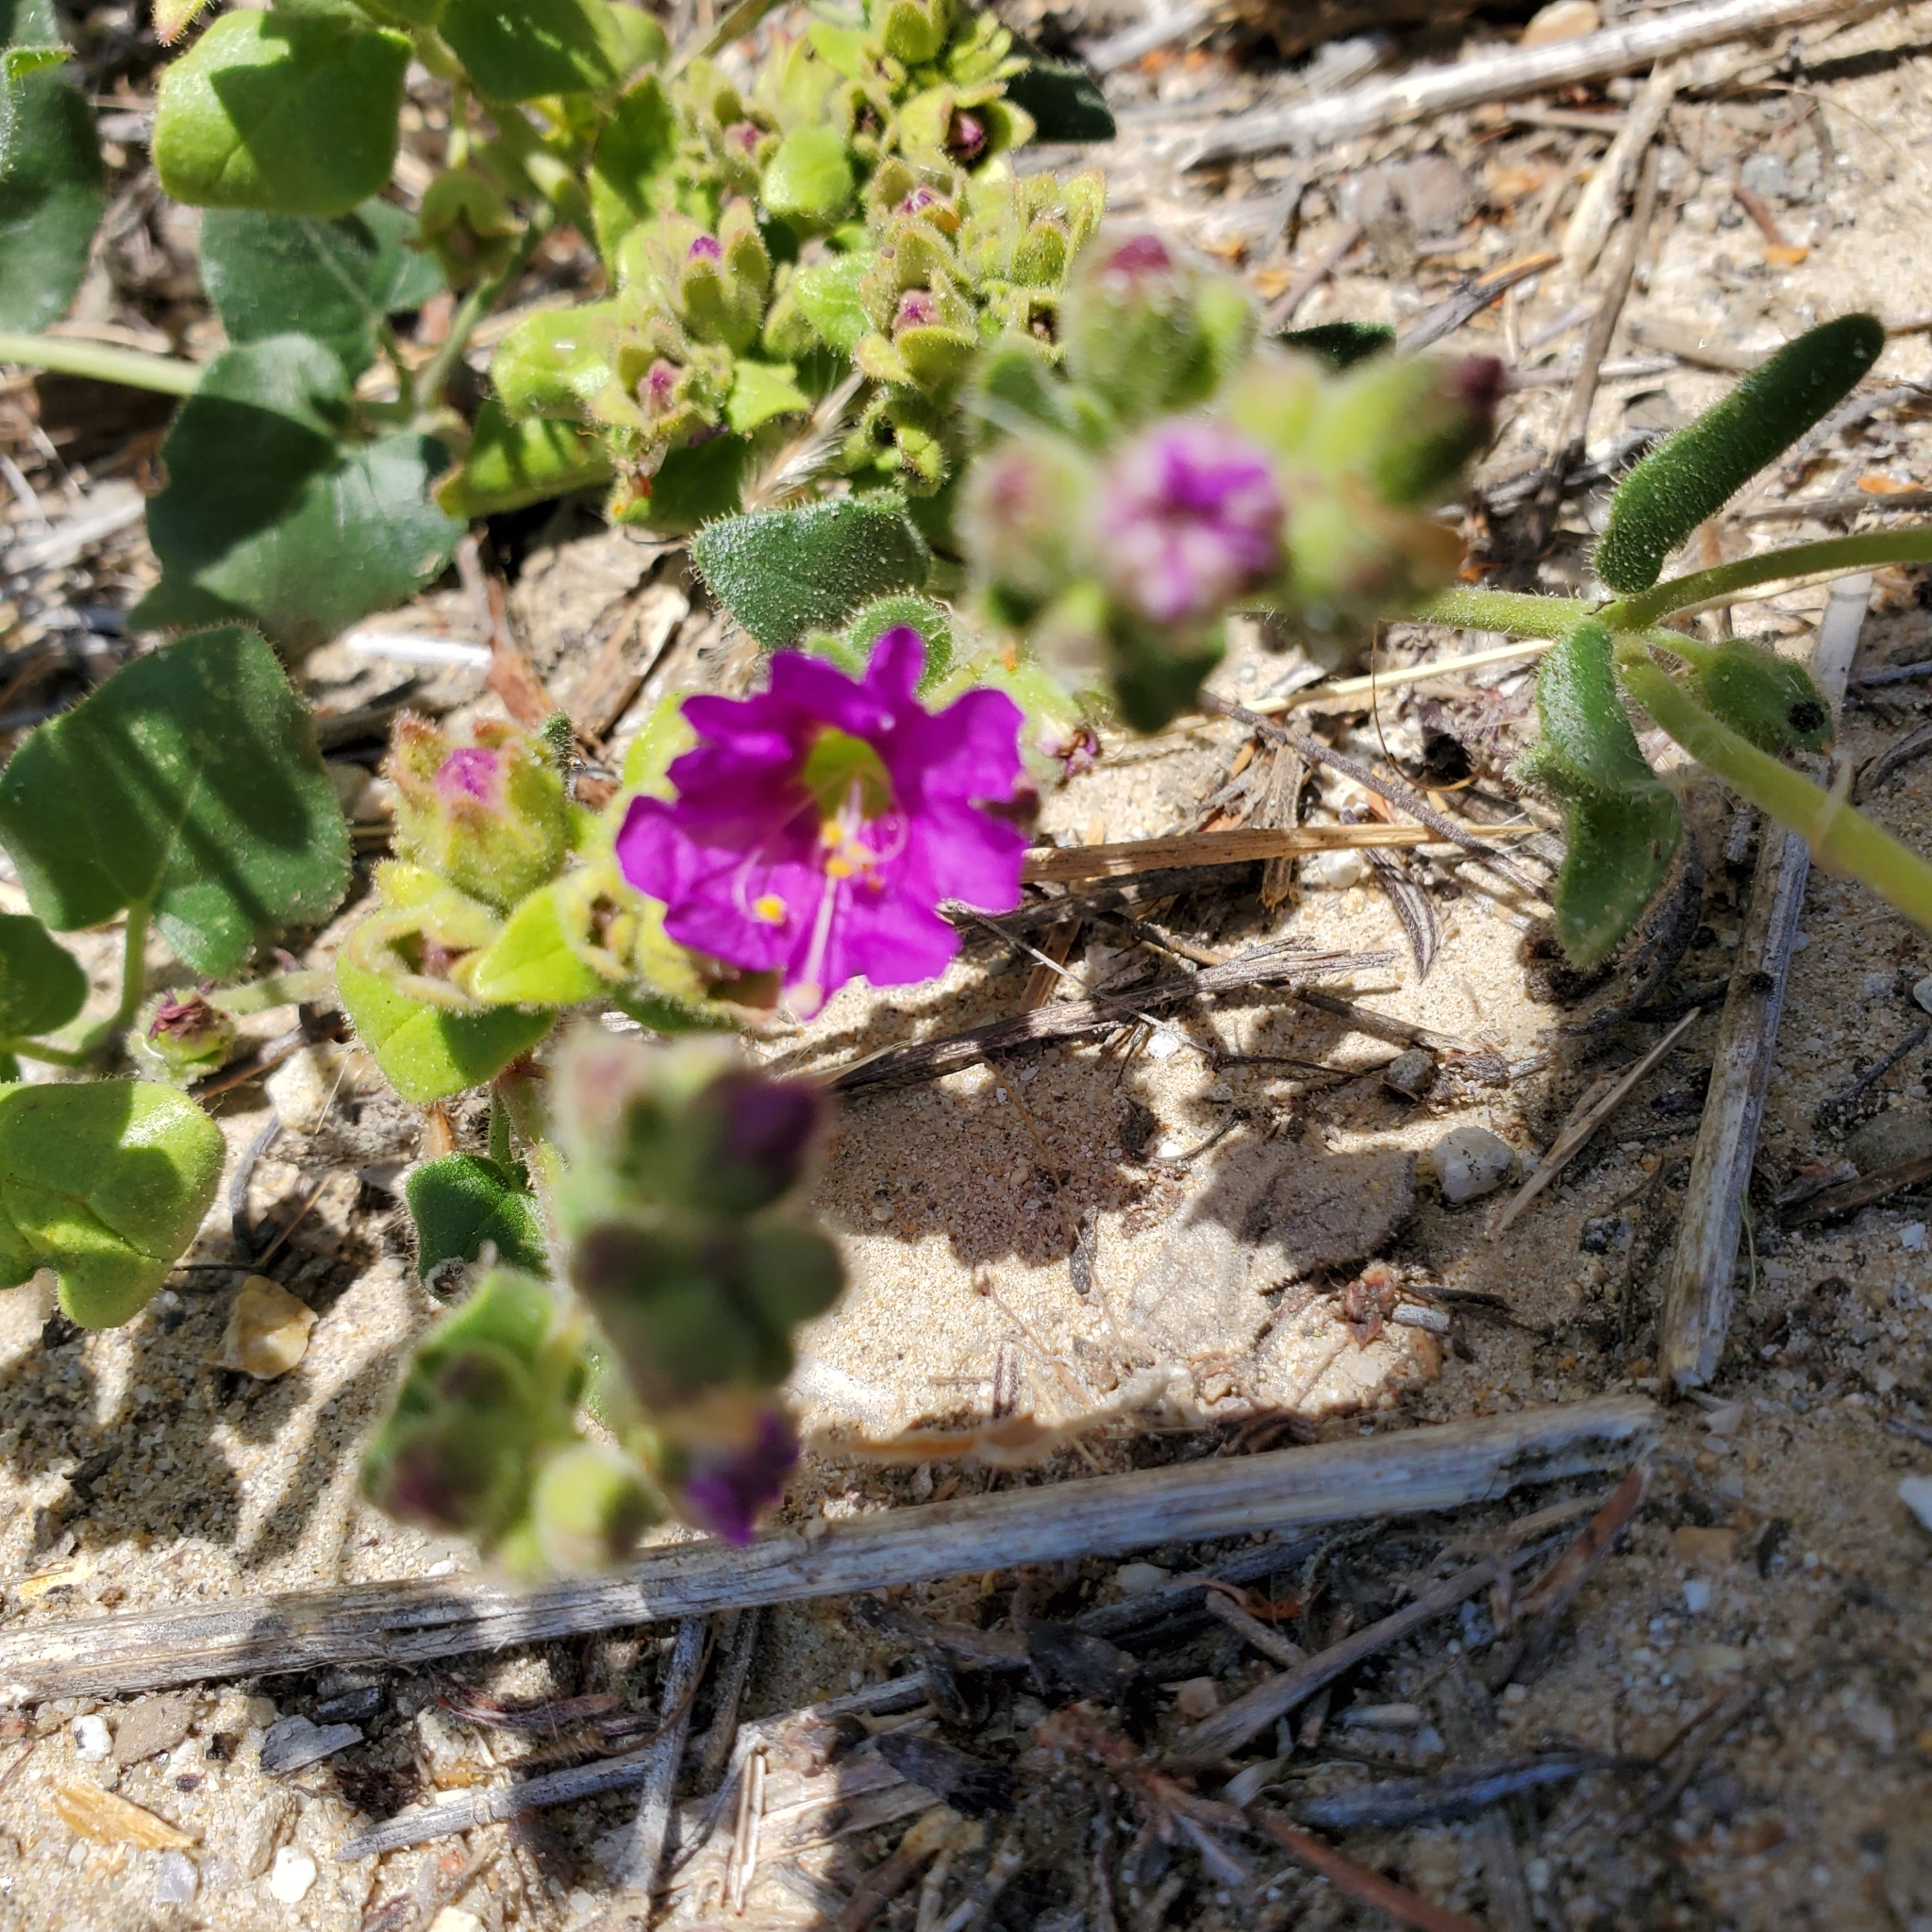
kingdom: Plantae
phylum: Tracheophyta
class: Magnoliopsida
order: Caryophyllales
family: Nyctaginaceae
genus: Mirabilis
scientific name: Mirabilis laevis
